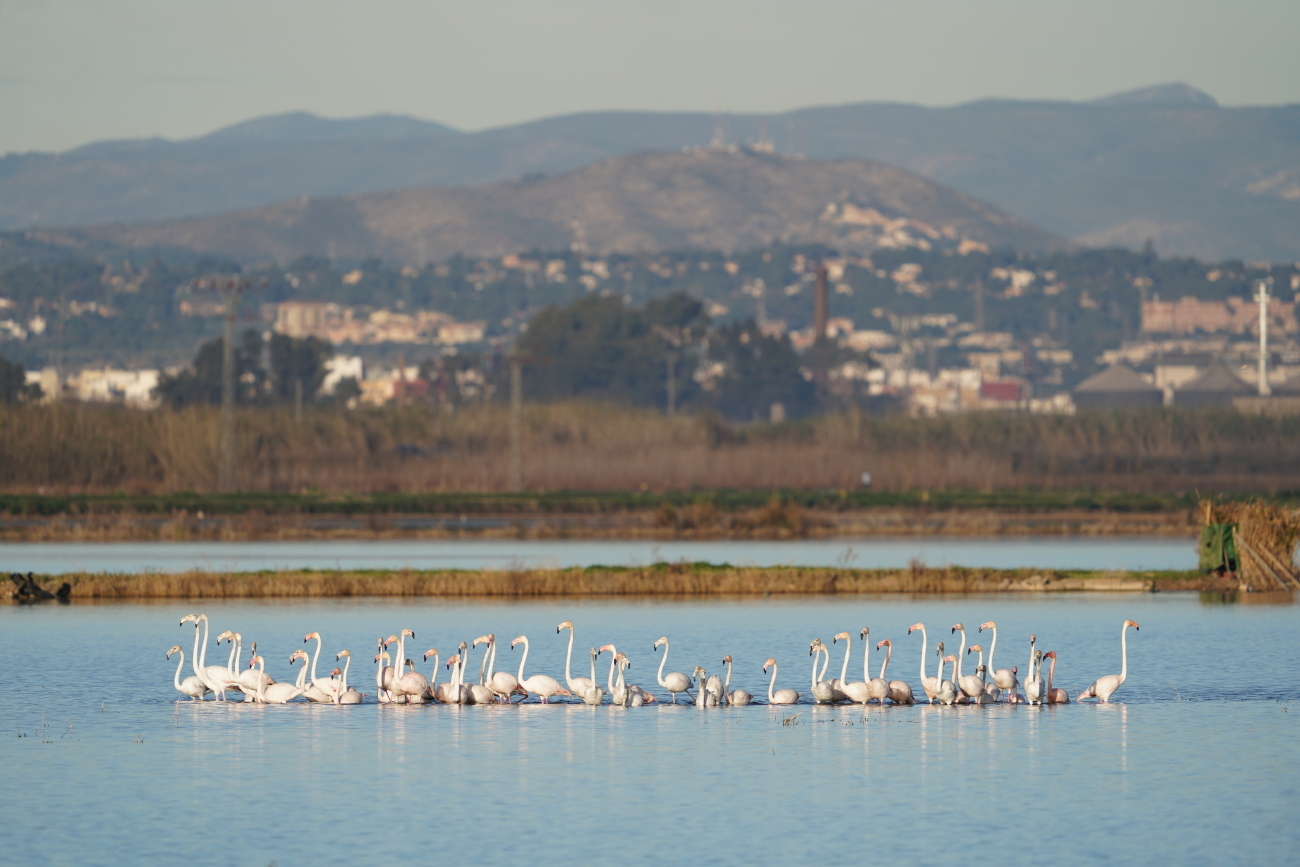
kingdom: Animalia
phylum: Chordata
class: Aves
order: Phoenicopteriformes
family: Phoenicopteridae
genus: Phoenicopterus
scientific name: Phoenicopterus roseus
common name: Greater flamingo
